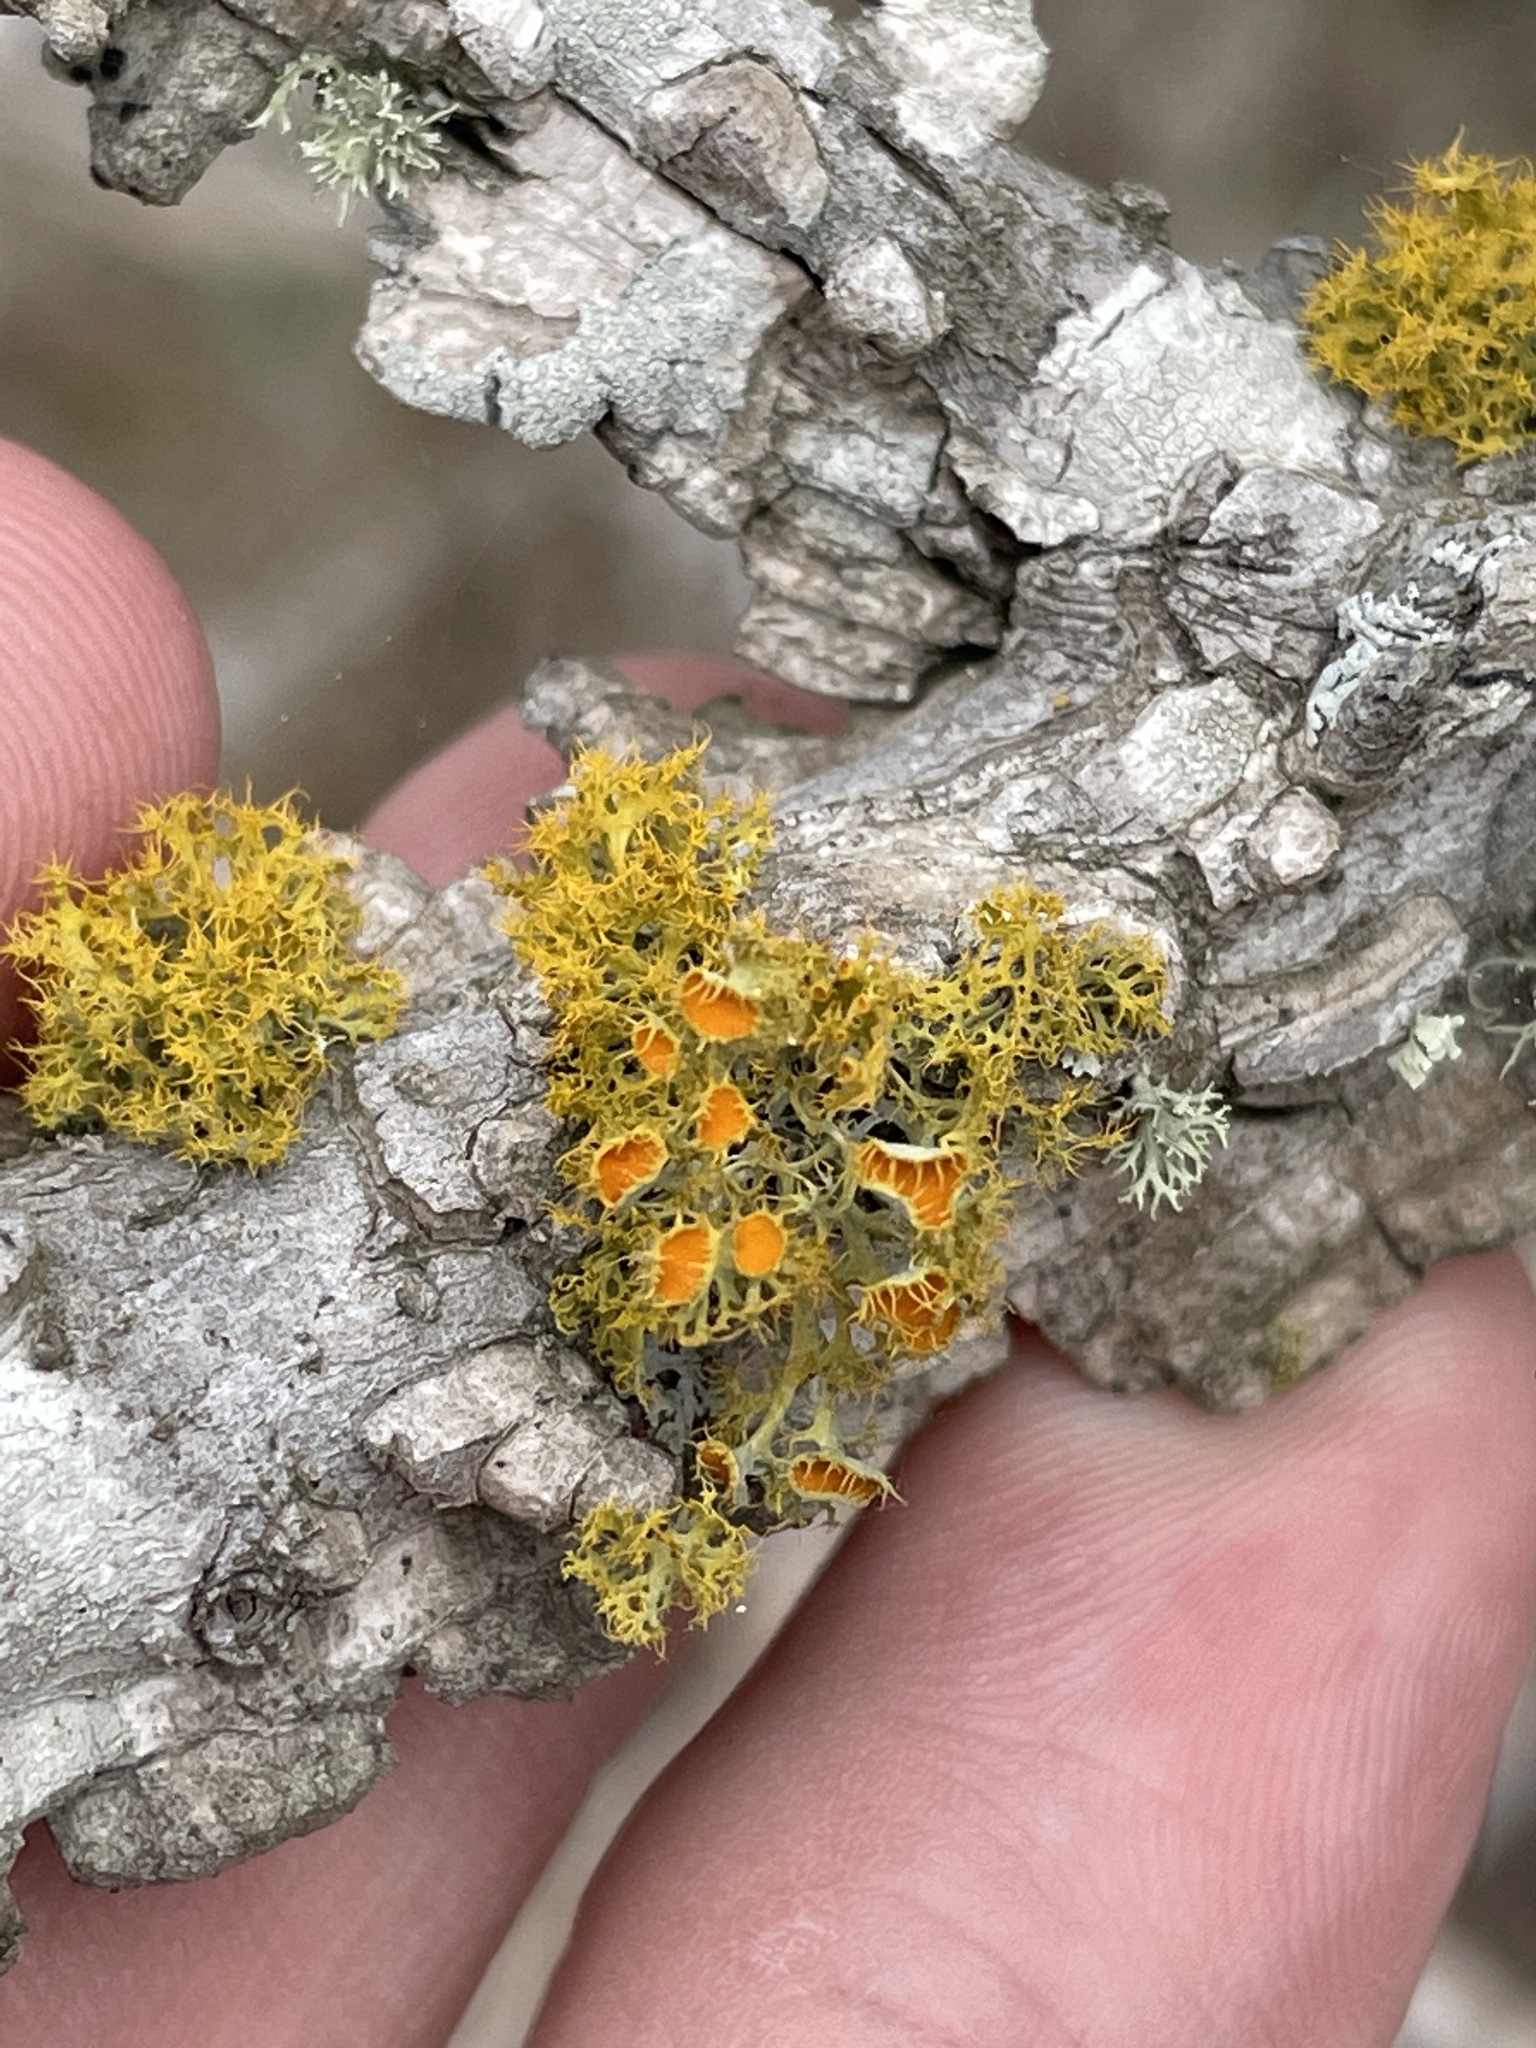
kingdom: Fungi
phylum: Ascomycota
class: Lecanoromycetes
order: Teloschistales
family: Teloschistaceae
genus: Niorma
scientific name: Niorma chrysophthalma
